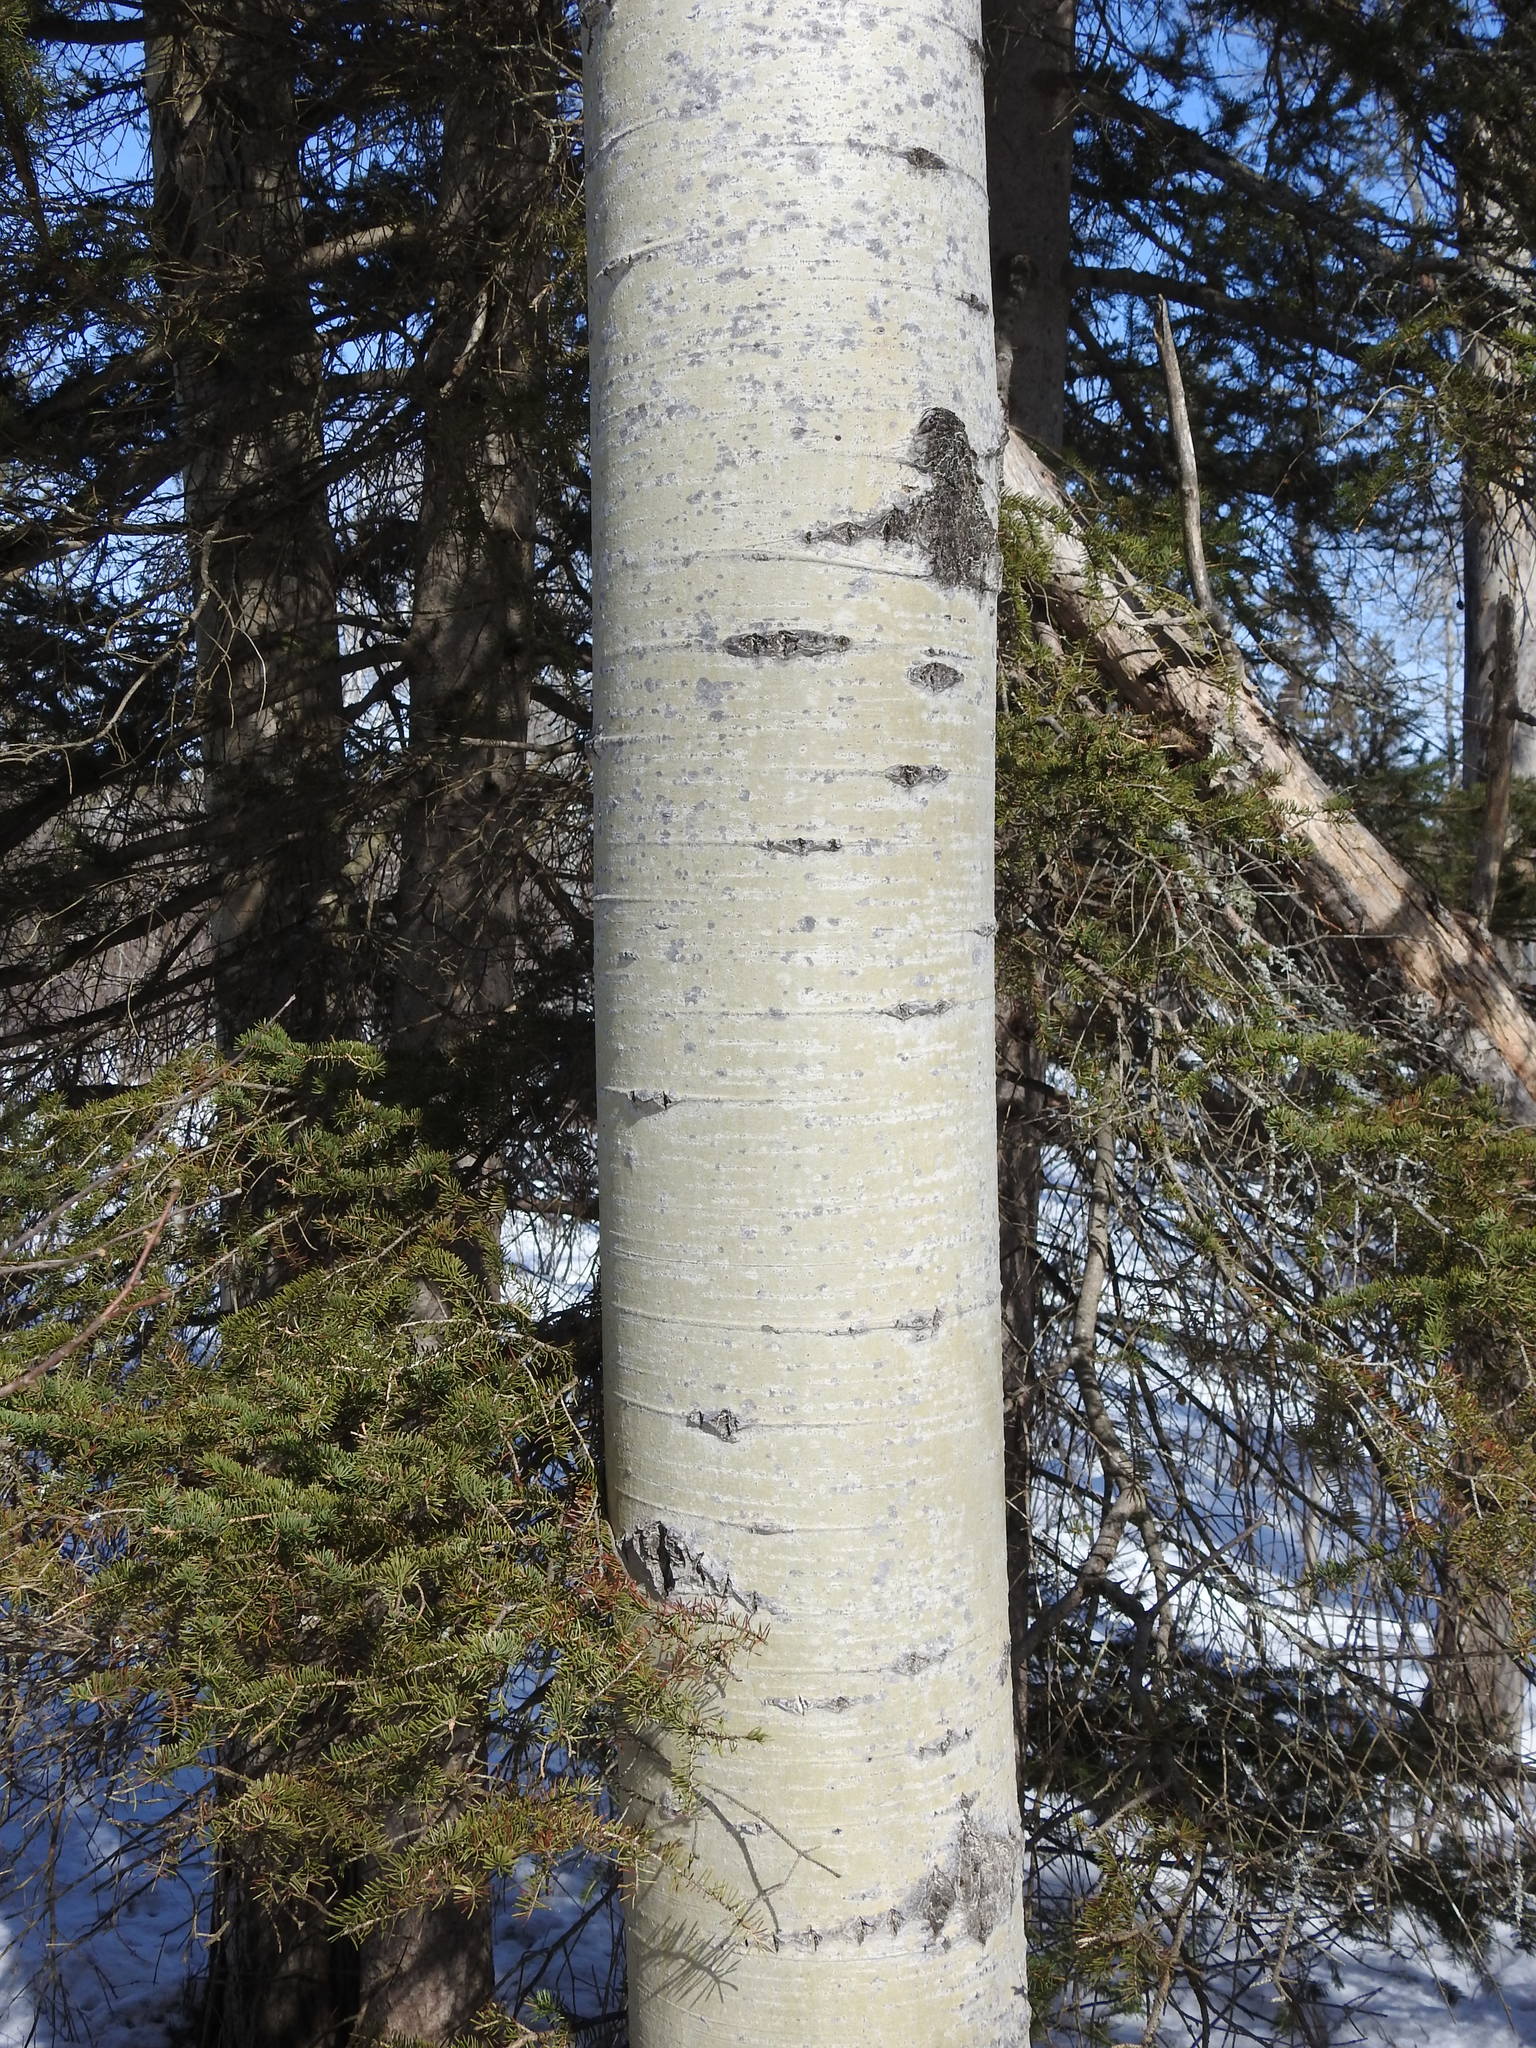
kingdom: Plantae
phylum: Tracheophyta
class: Magnoliopsida
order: Malpighiales
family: Salicaceae
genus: Populus
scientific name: Populus tremuloides
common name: Quaking aspen
